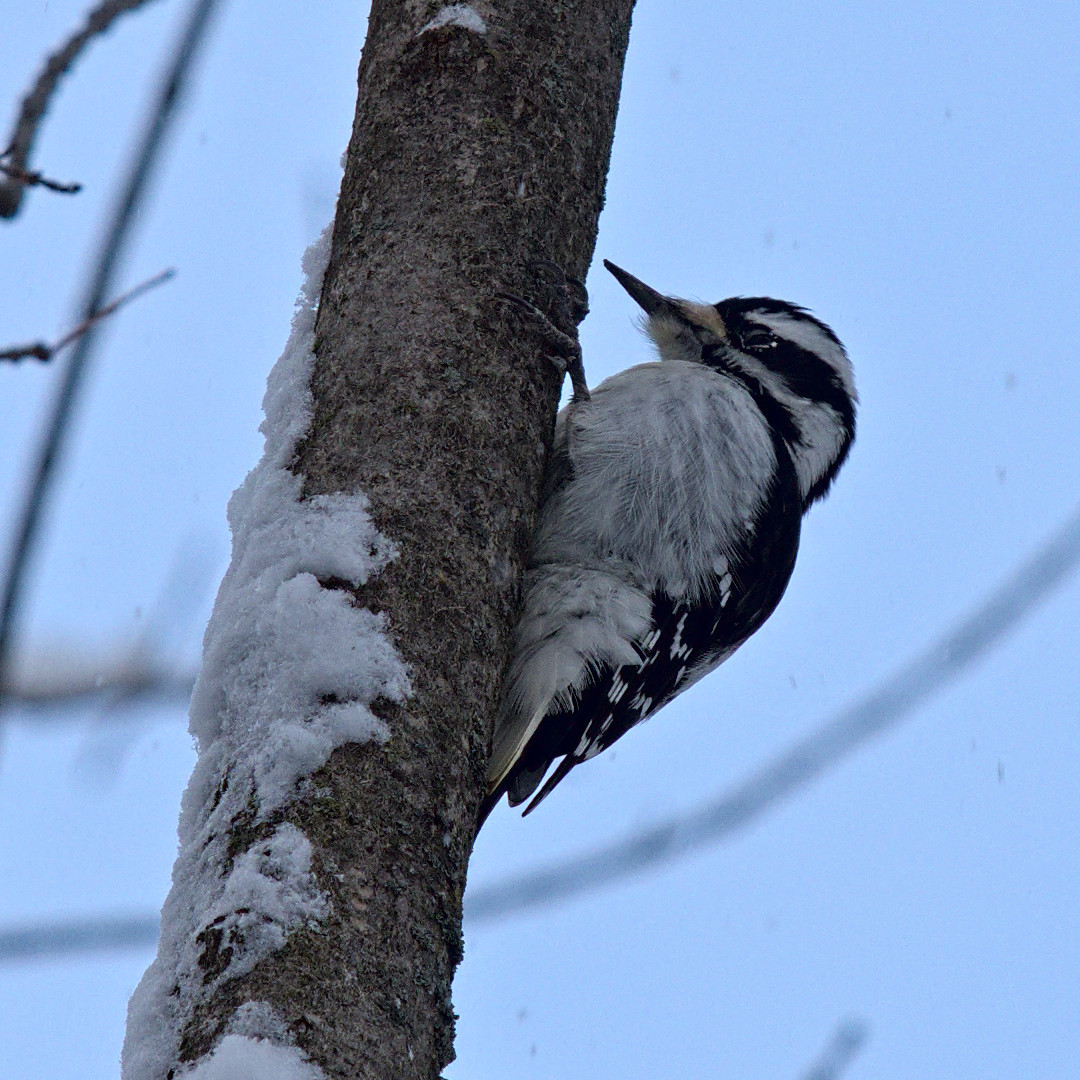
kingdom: Animalia
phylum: Chordata
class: Aves
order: Piciformes
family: Picidae
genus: Leuconotopicus
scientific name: Leuconotopicus villosus
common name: Hairy woodpecker
